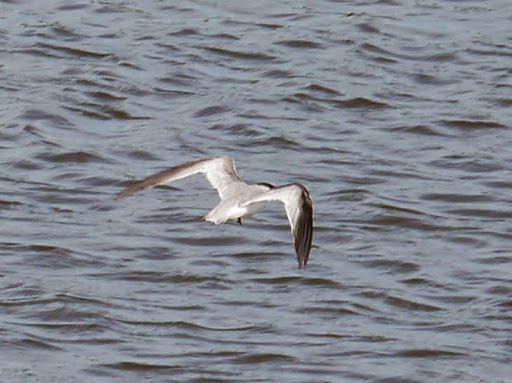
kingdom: Animalia
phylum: Chordata
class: Aves
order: Charadriiformes
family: Laridae
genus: Sterna
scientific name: Sterna forsteri
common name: Forster's tern
